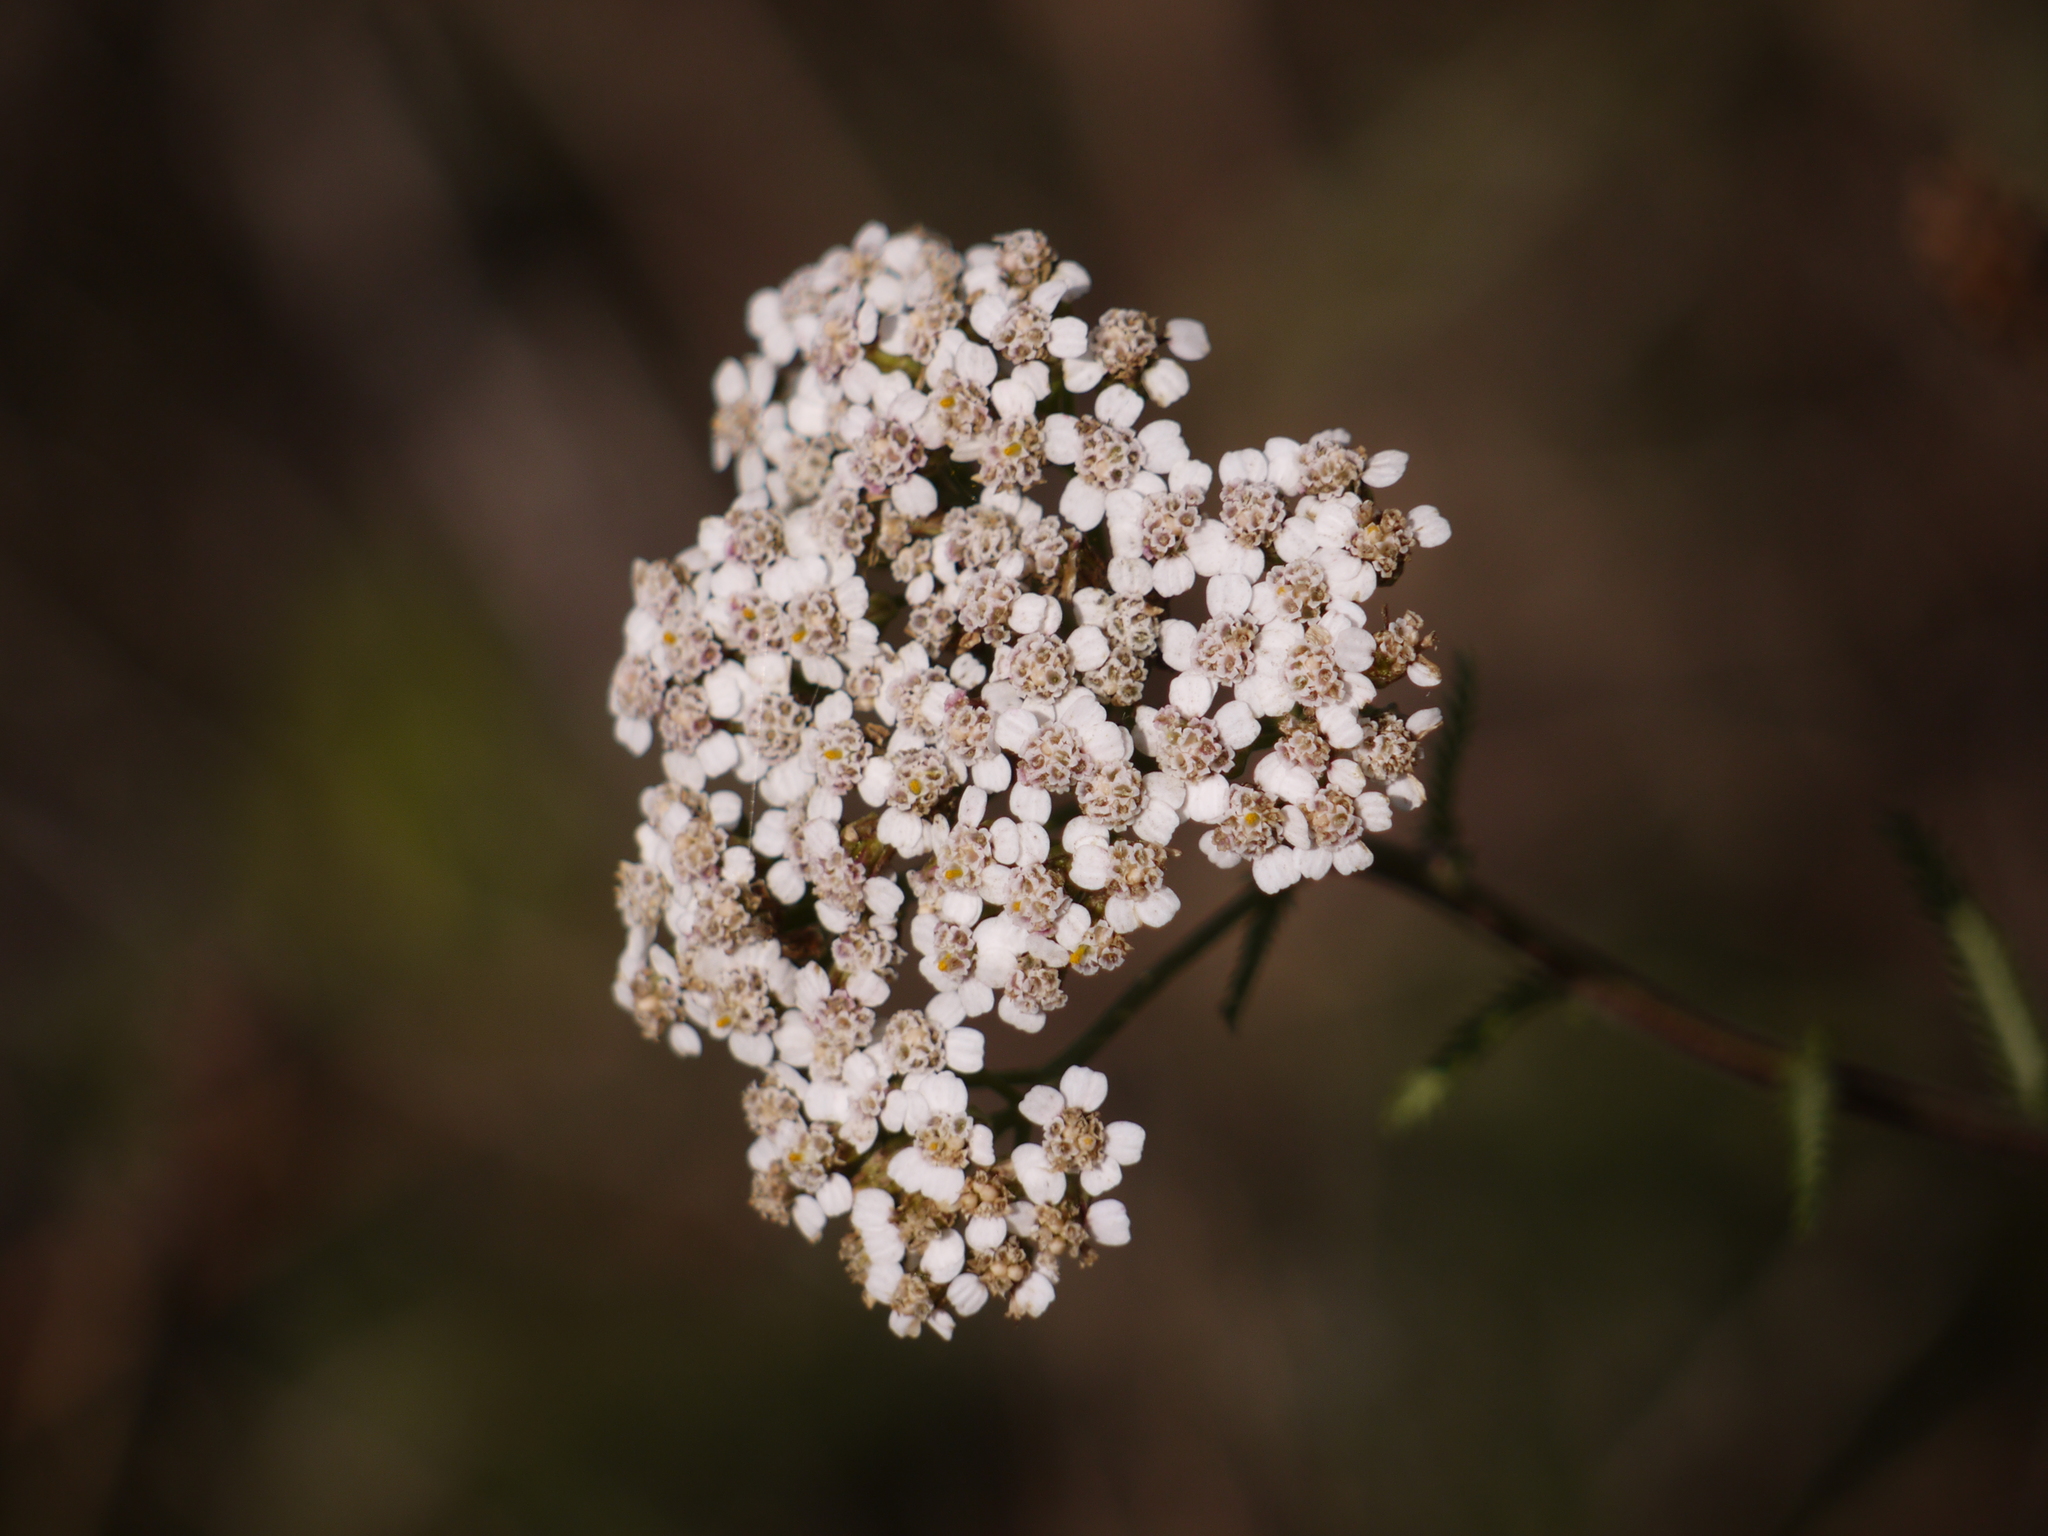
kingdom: Plantae
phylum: Tracheophyta
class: Magnoliopsida
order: Asterales
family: Asteraceae
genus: Achillea
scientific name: Achillea millefolium
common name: Yarrow
